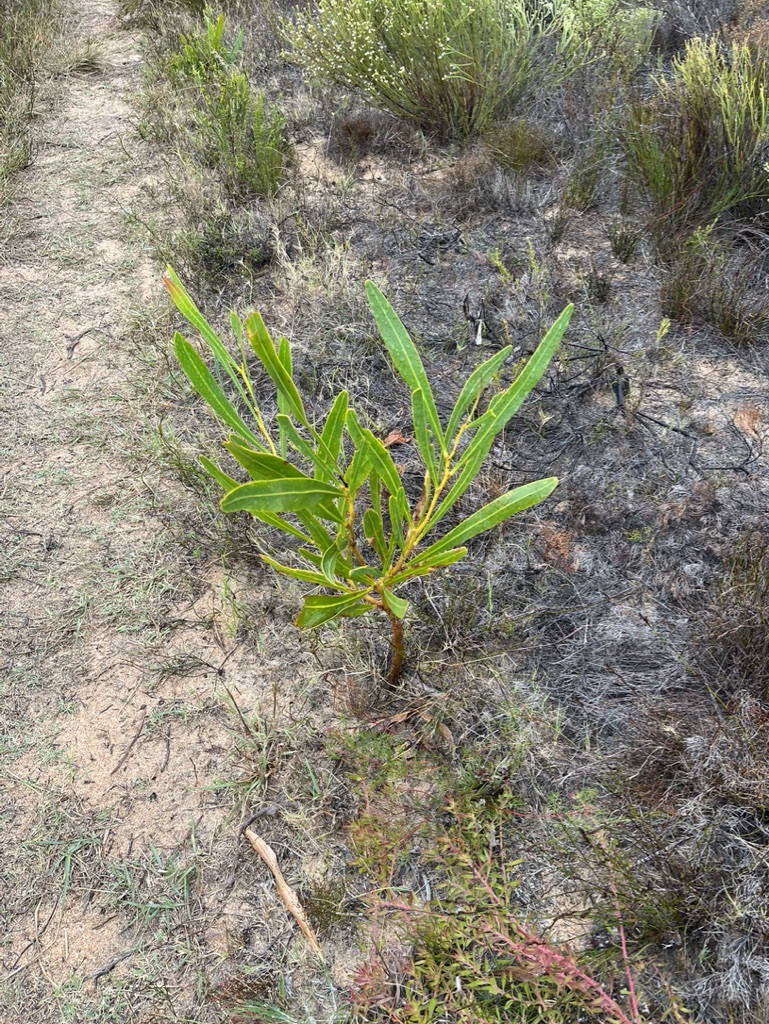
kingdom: Plantae
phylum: Tracheophyta
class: Magnoliopsida
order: Fabales
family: Fabaceae
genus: Acacia
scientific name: Acacia saligna
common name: Orange wattle
